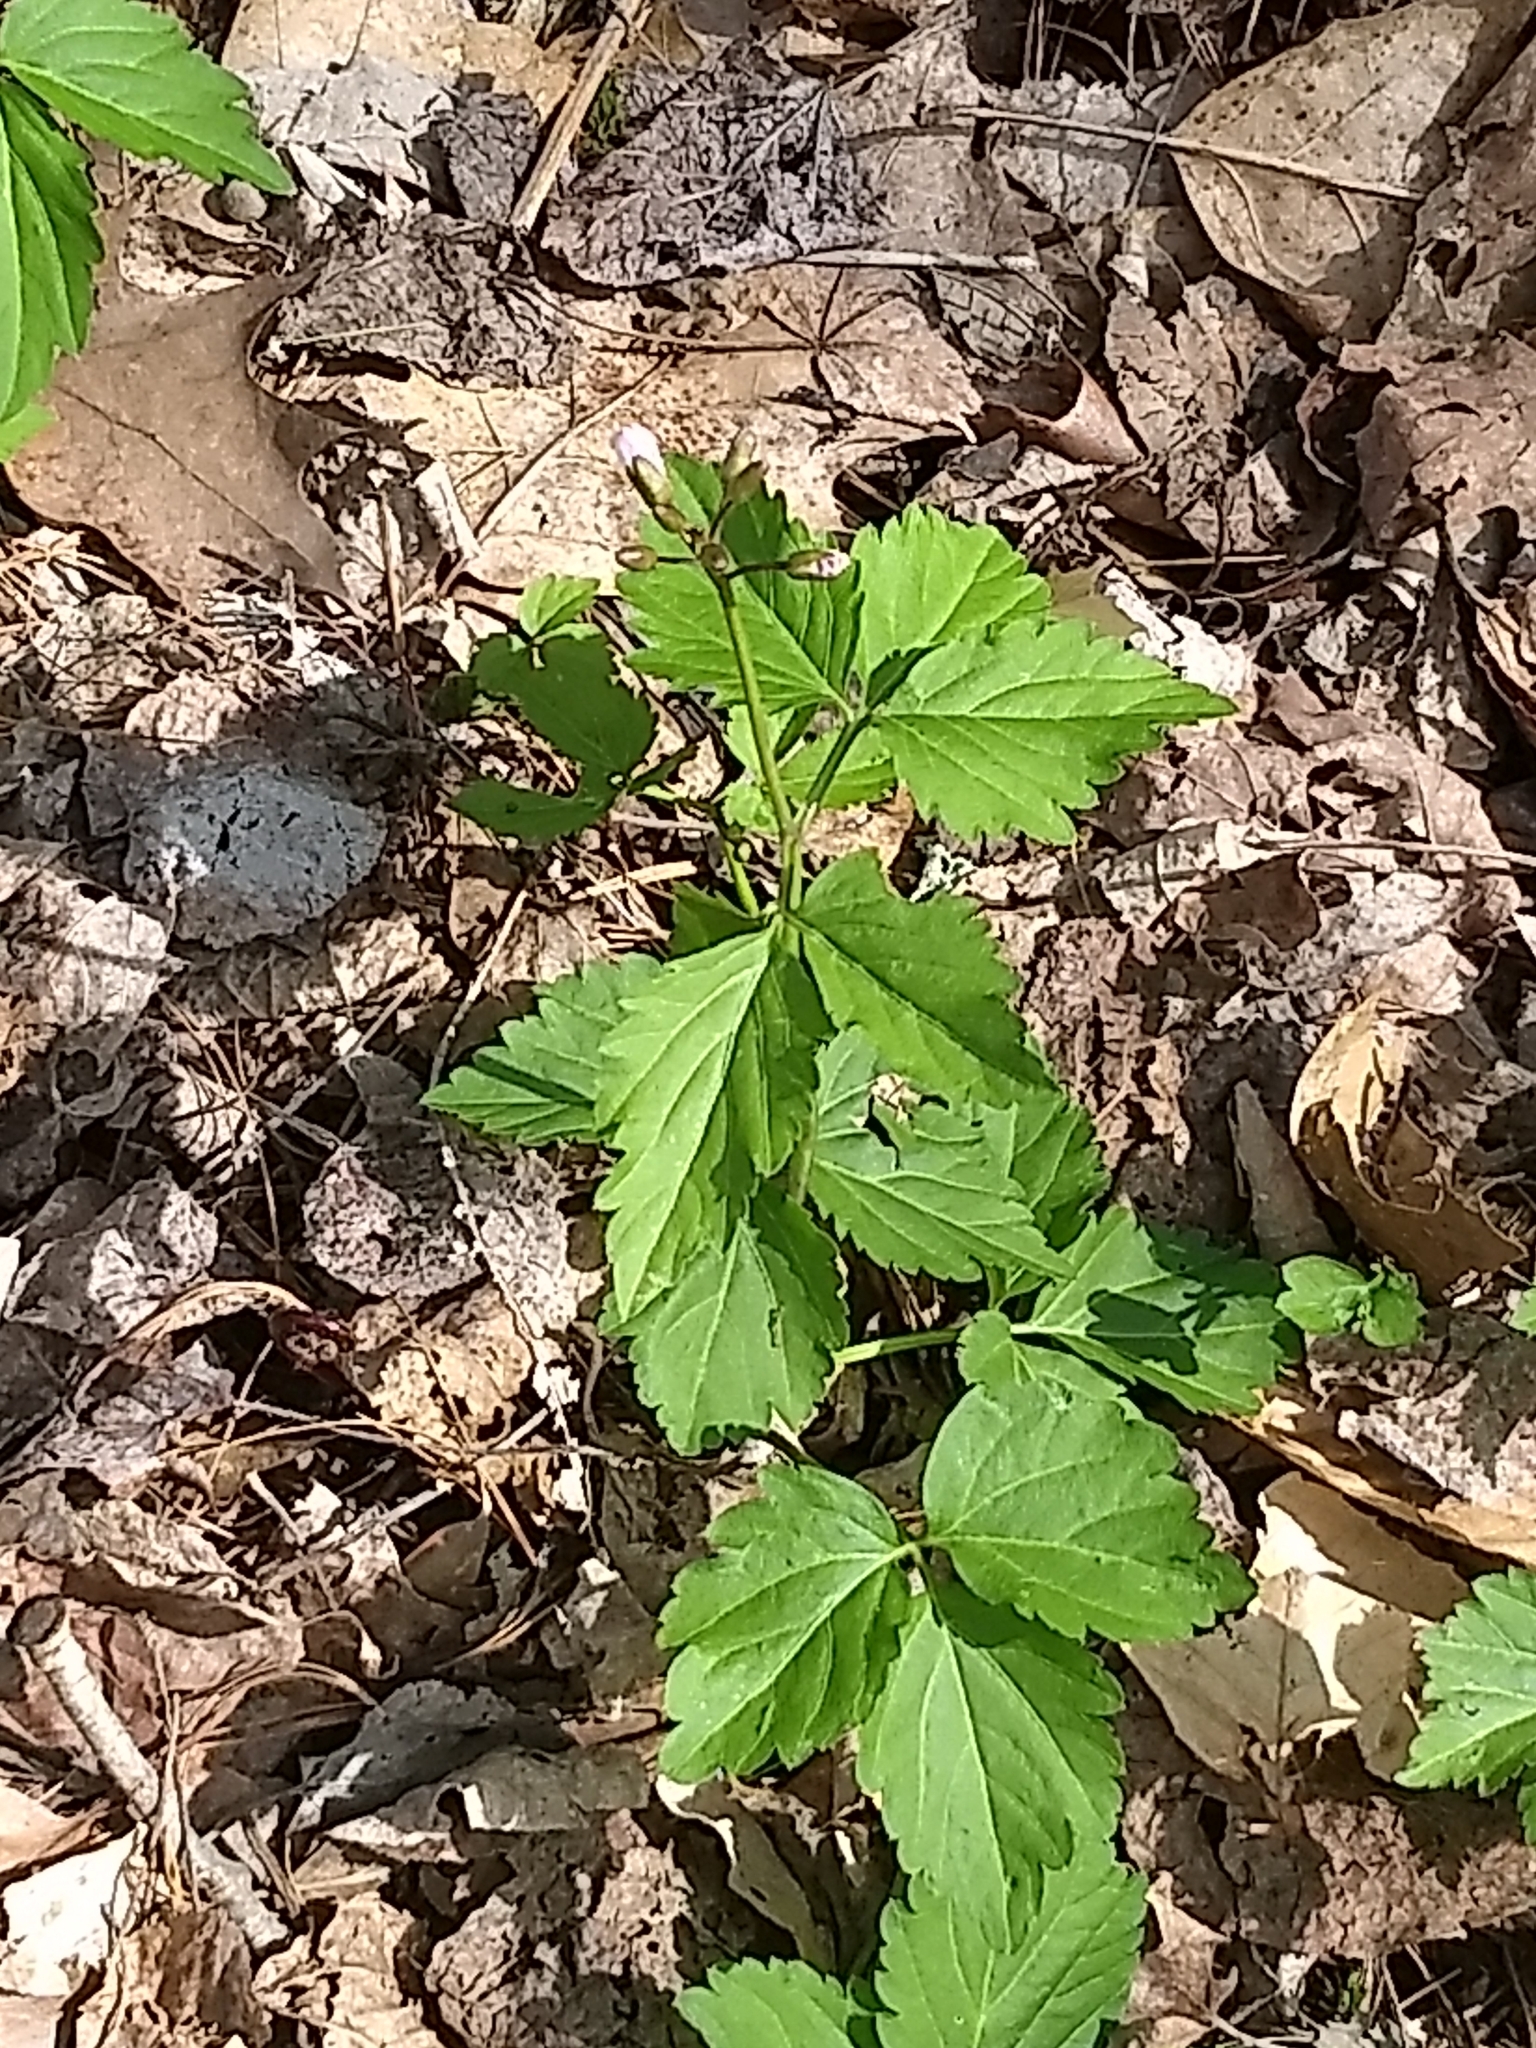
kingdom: Plantae
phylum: Tracheophyta
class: Magnoliopsida
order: Brassicales
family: Brassicaceae
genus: Cardamine
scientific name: Cardamine diphylla
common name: Broad-leaved toothwort
